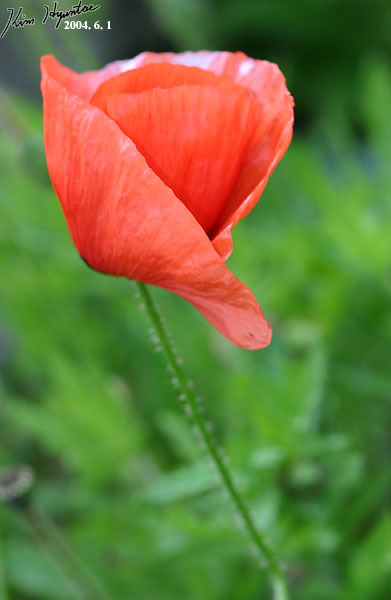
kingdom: Plantae
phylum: Tracheophyta
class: Magnoliopsida
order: Ranunculales
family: Papaveraceae
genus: Papaver
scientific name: Papaver rhoeas
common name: Corn poppy
